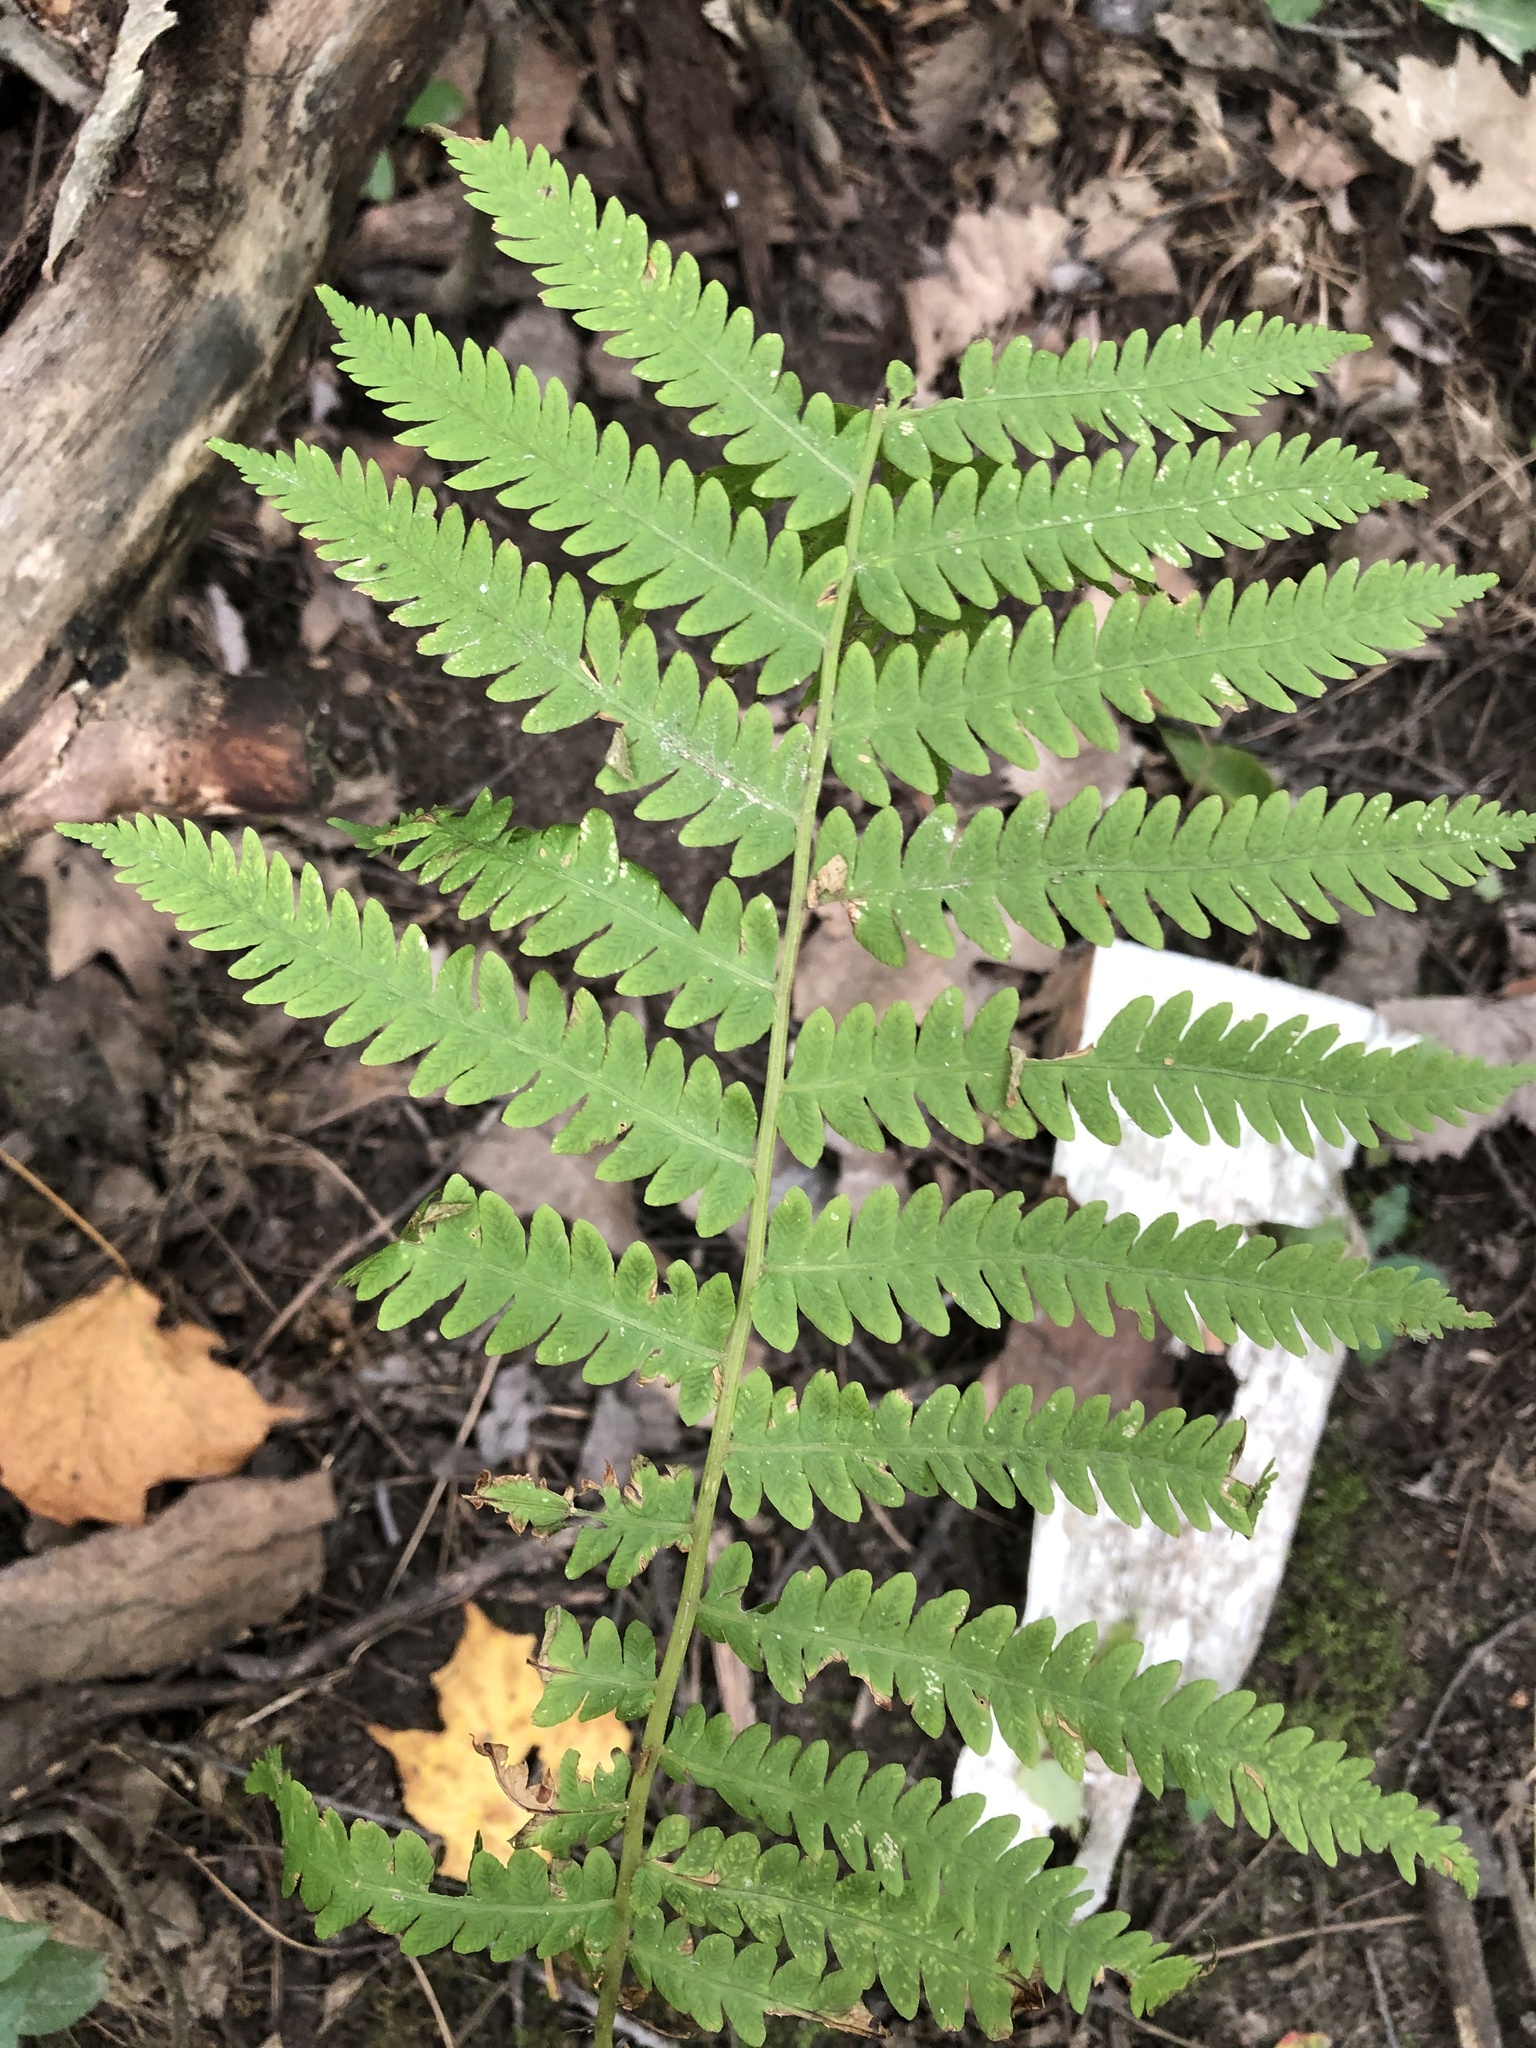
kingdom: Plantae
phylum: Tracheophyta
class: Polypodiopsida
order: Osmundales
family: Osmundaceae
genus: Claytosmunda
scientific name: Claytosmunda claytoniana
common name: Clayton's fern
